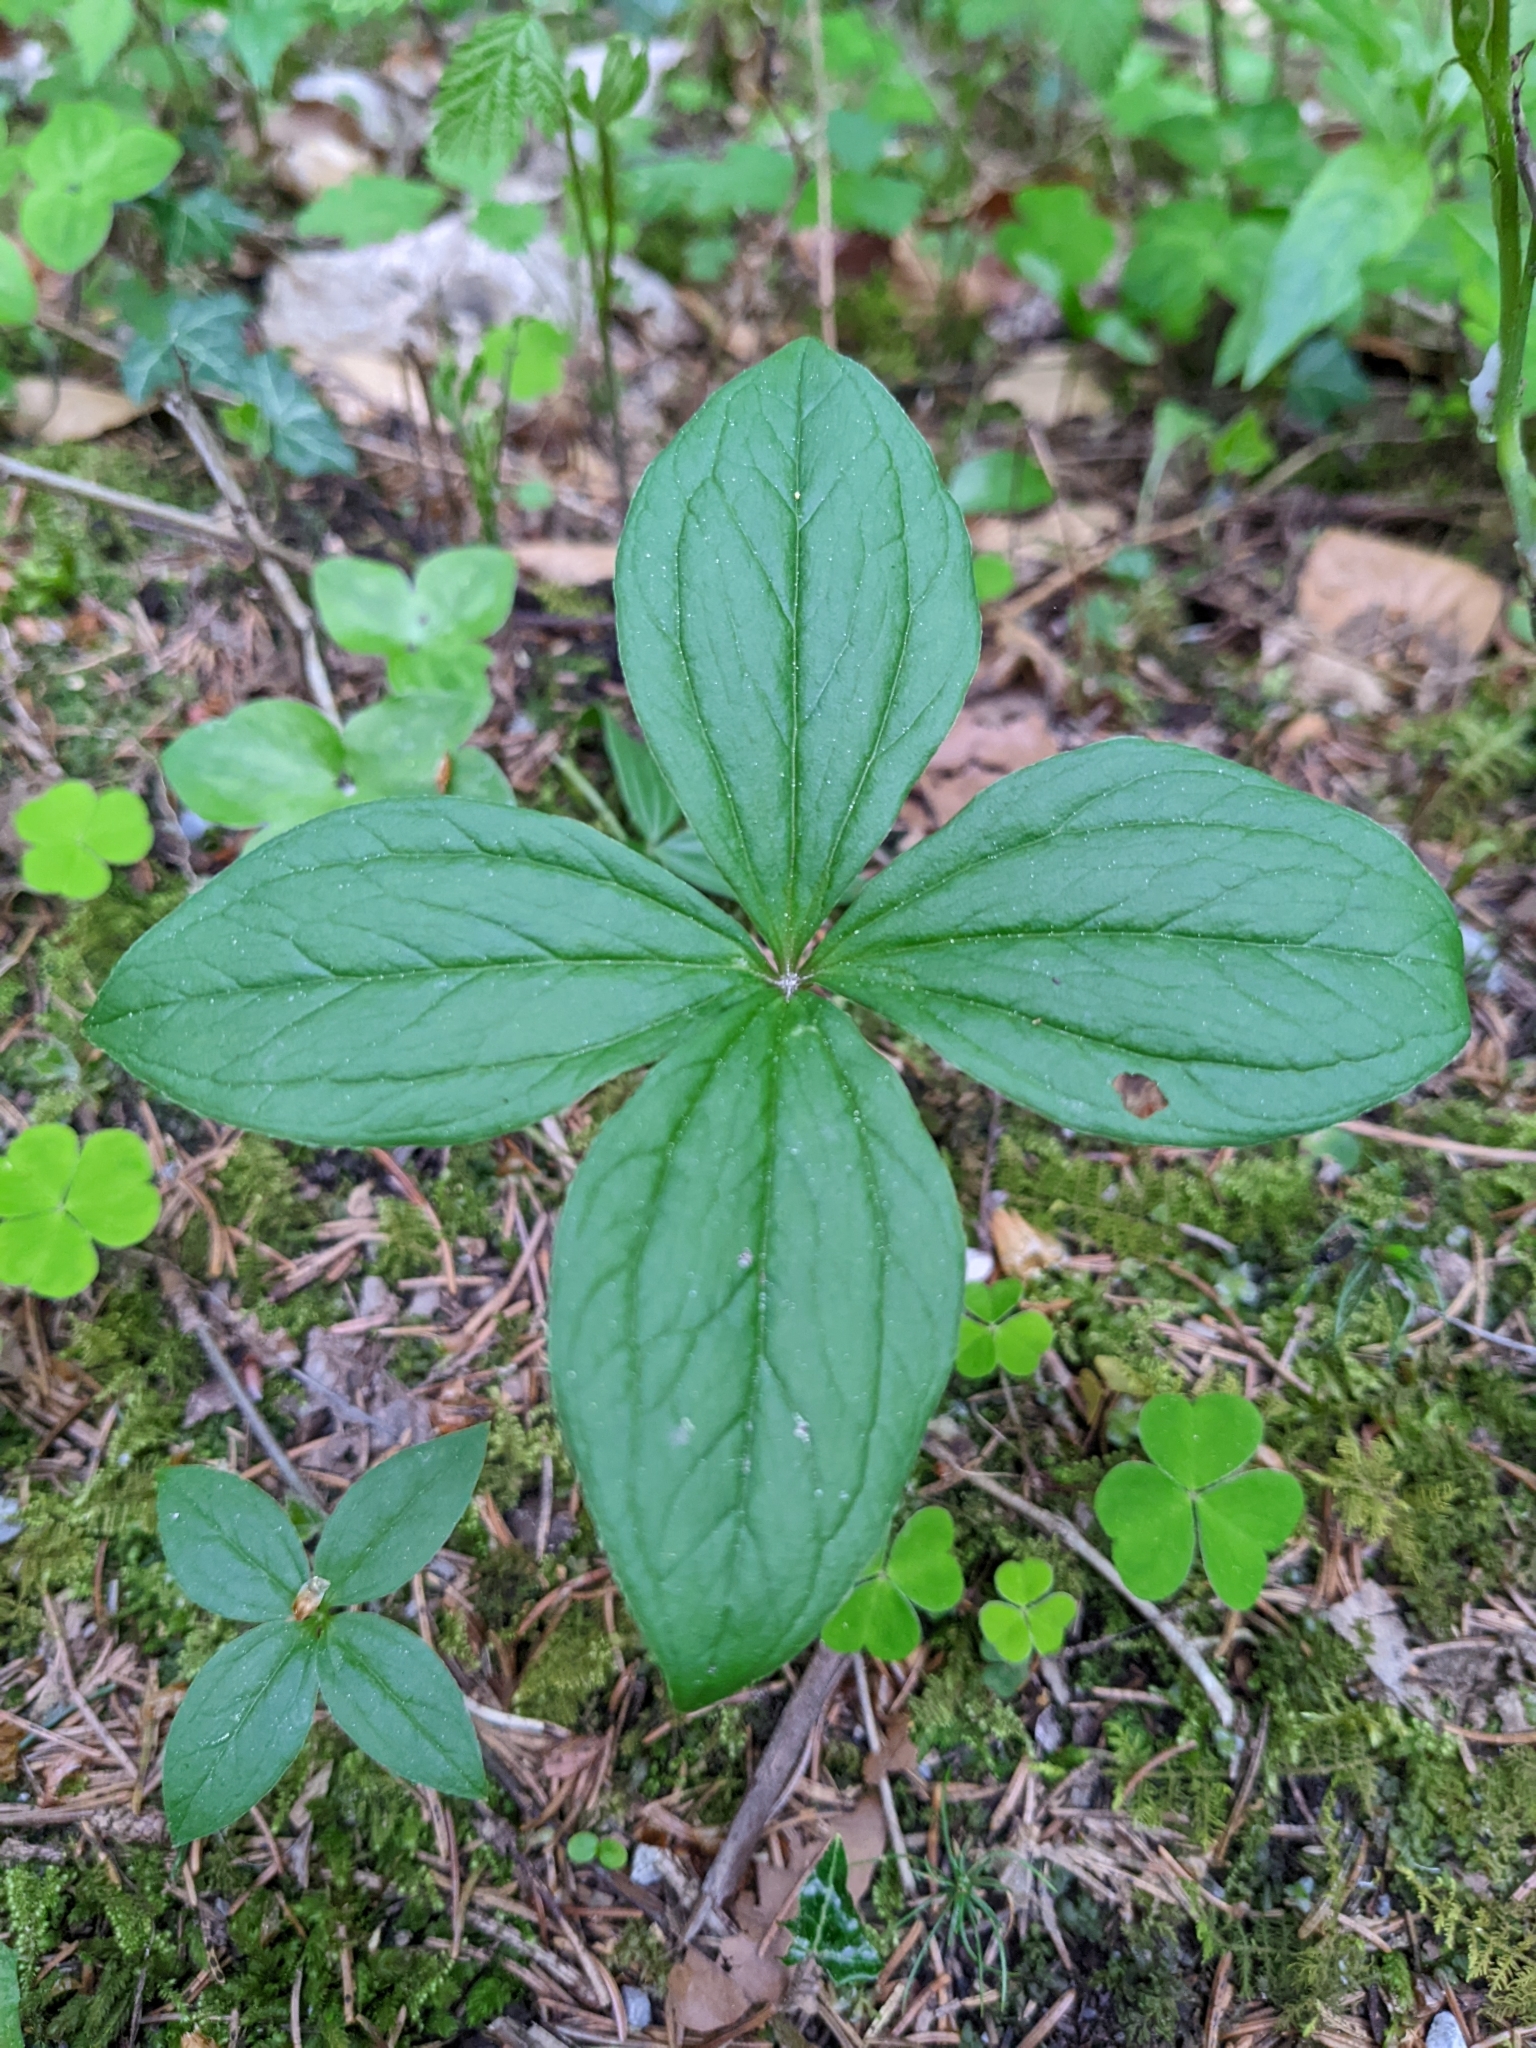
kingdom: Plantae
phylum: Tracheophyta
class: Liliopsida
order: Liliales
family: Melanthiaceae
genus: Paris
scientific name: Paris quadrifolia
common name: Herb-paris
